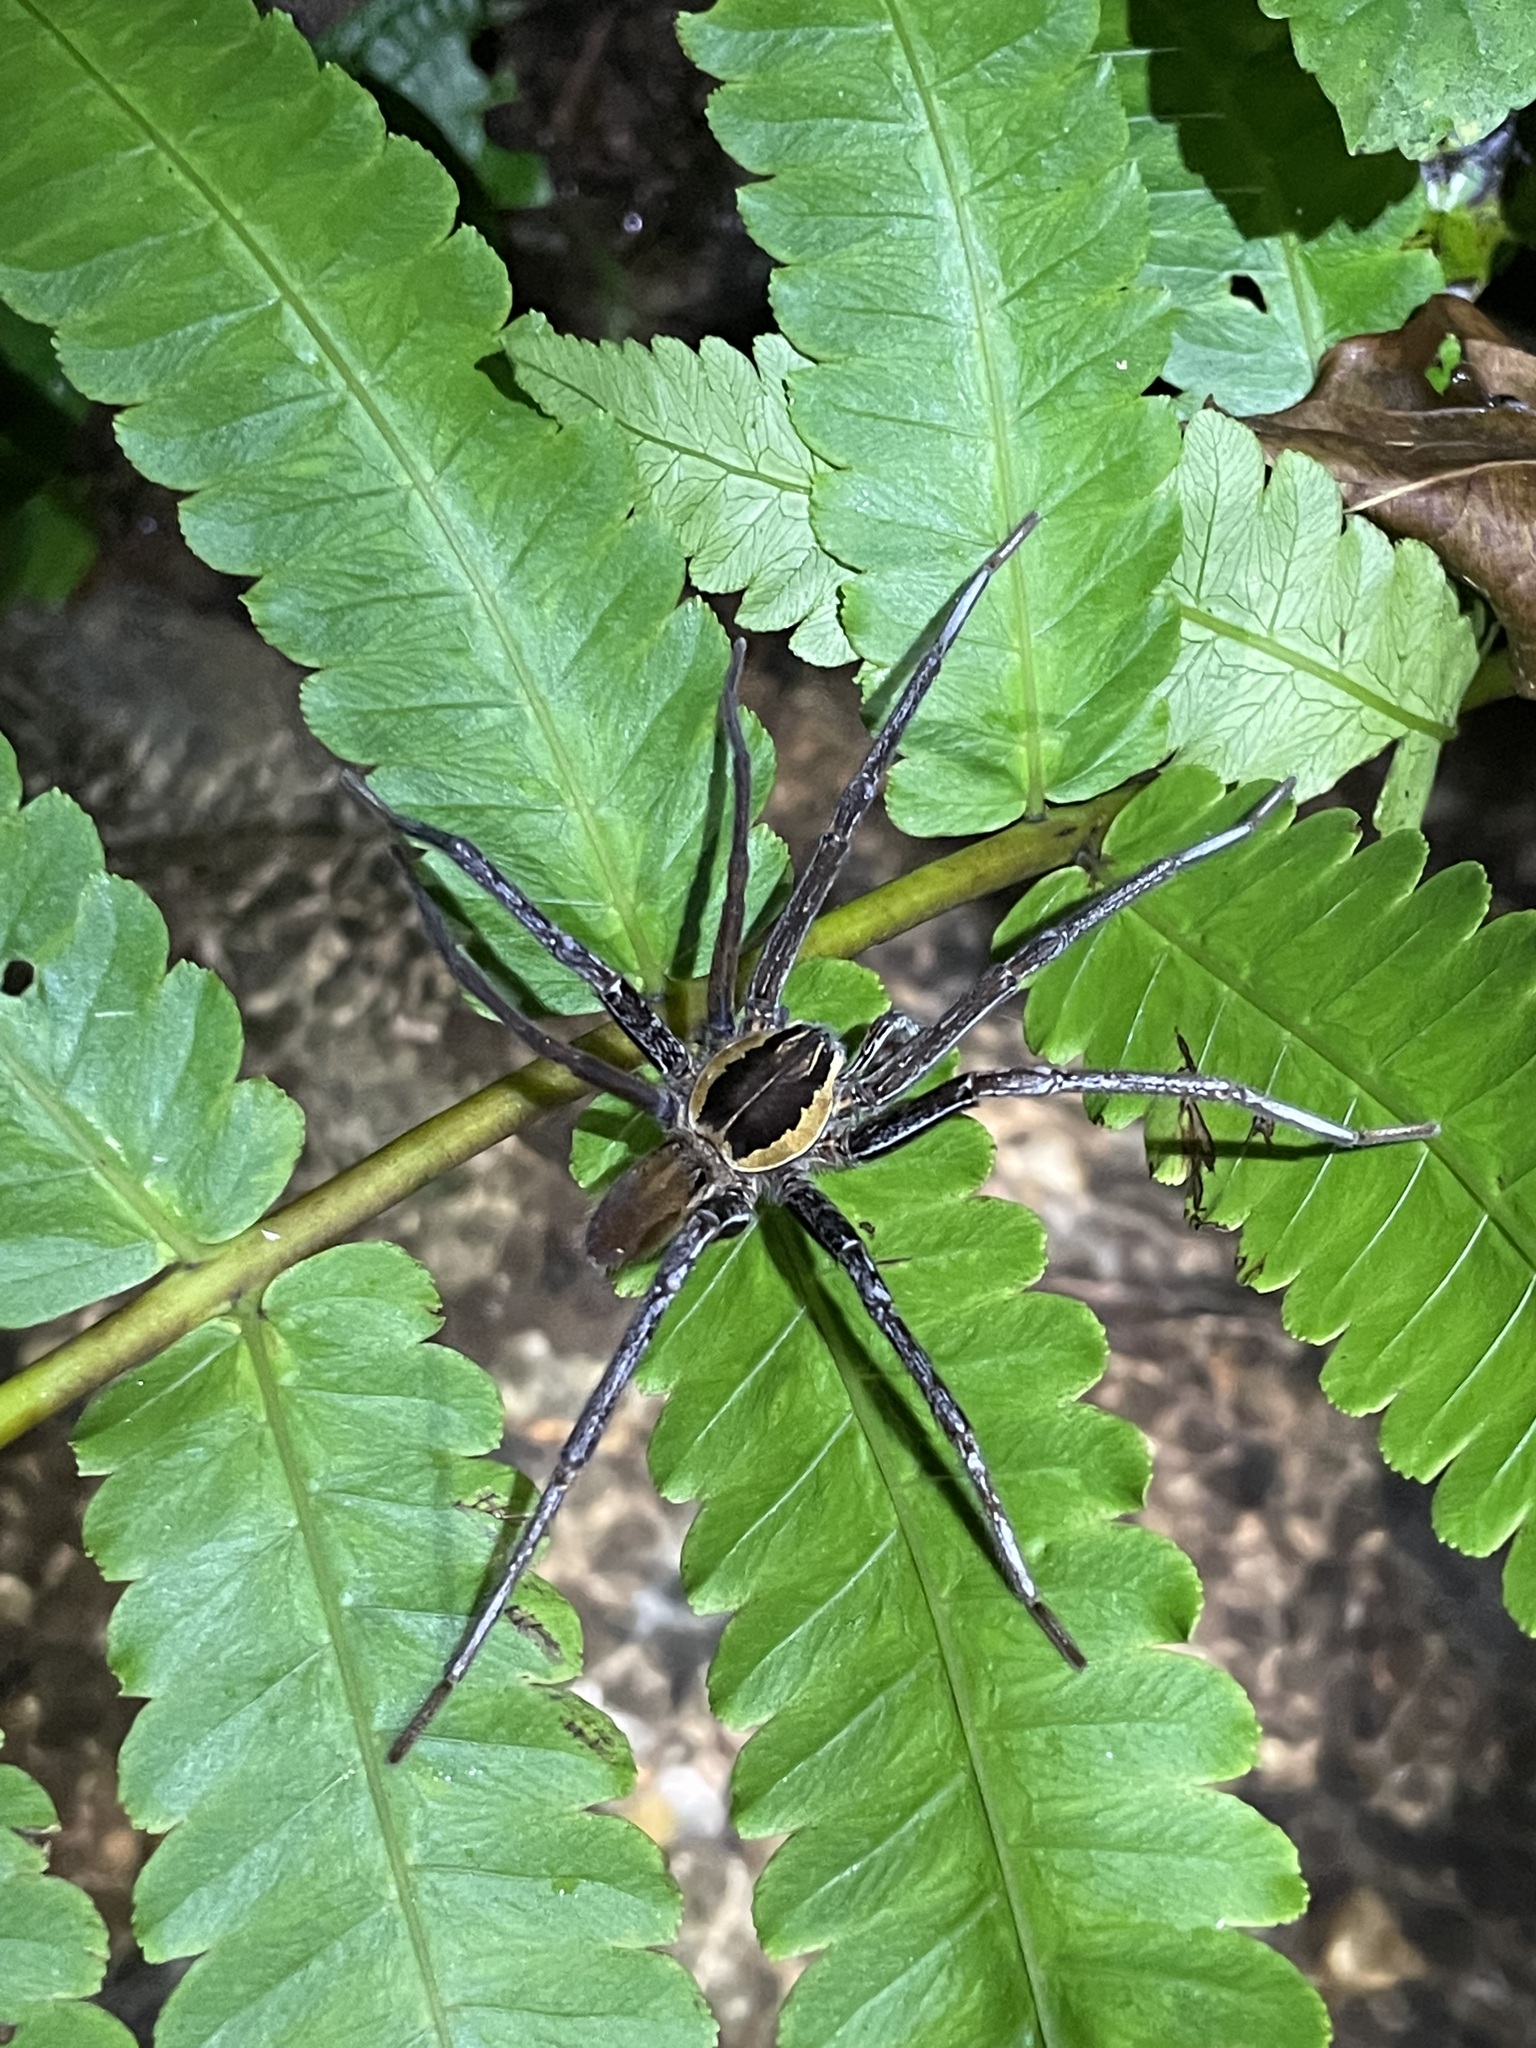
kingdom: Animalia
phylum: Arthropoda
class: Arachnida
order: Araneae
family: Ctenidae
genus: Ancylometes
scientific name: Ancylometes bogotensis
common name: Wandering spiders
